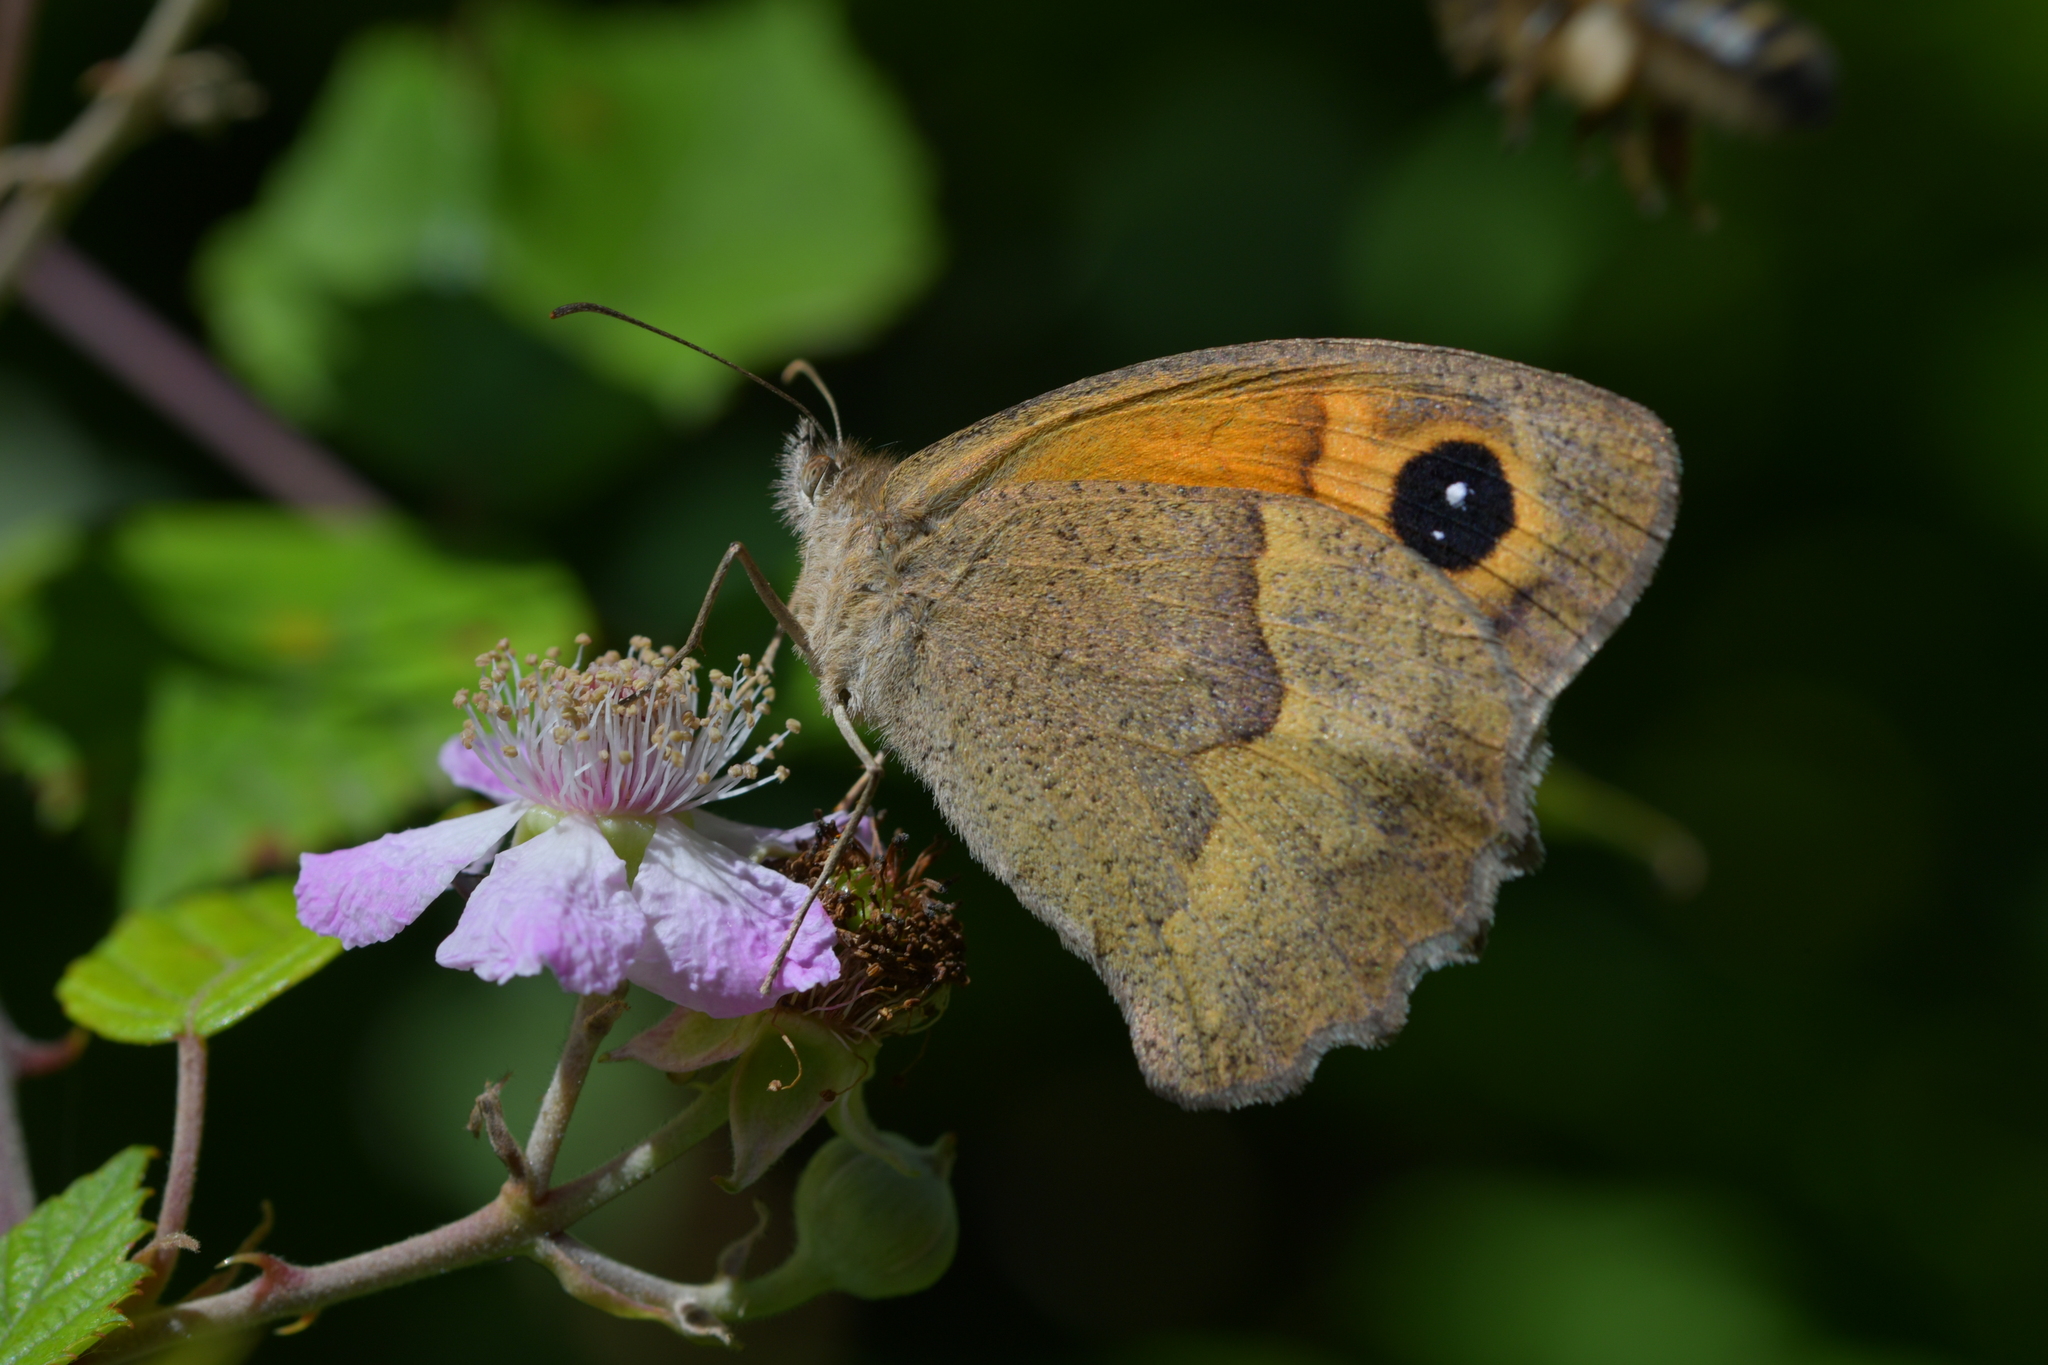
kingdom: Animalia
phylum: Arthropoda
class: Insecta
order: Lepidoptera
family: Nymphalidae
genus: Maniola
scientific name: Maniola jurtina
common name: Meadow brown
